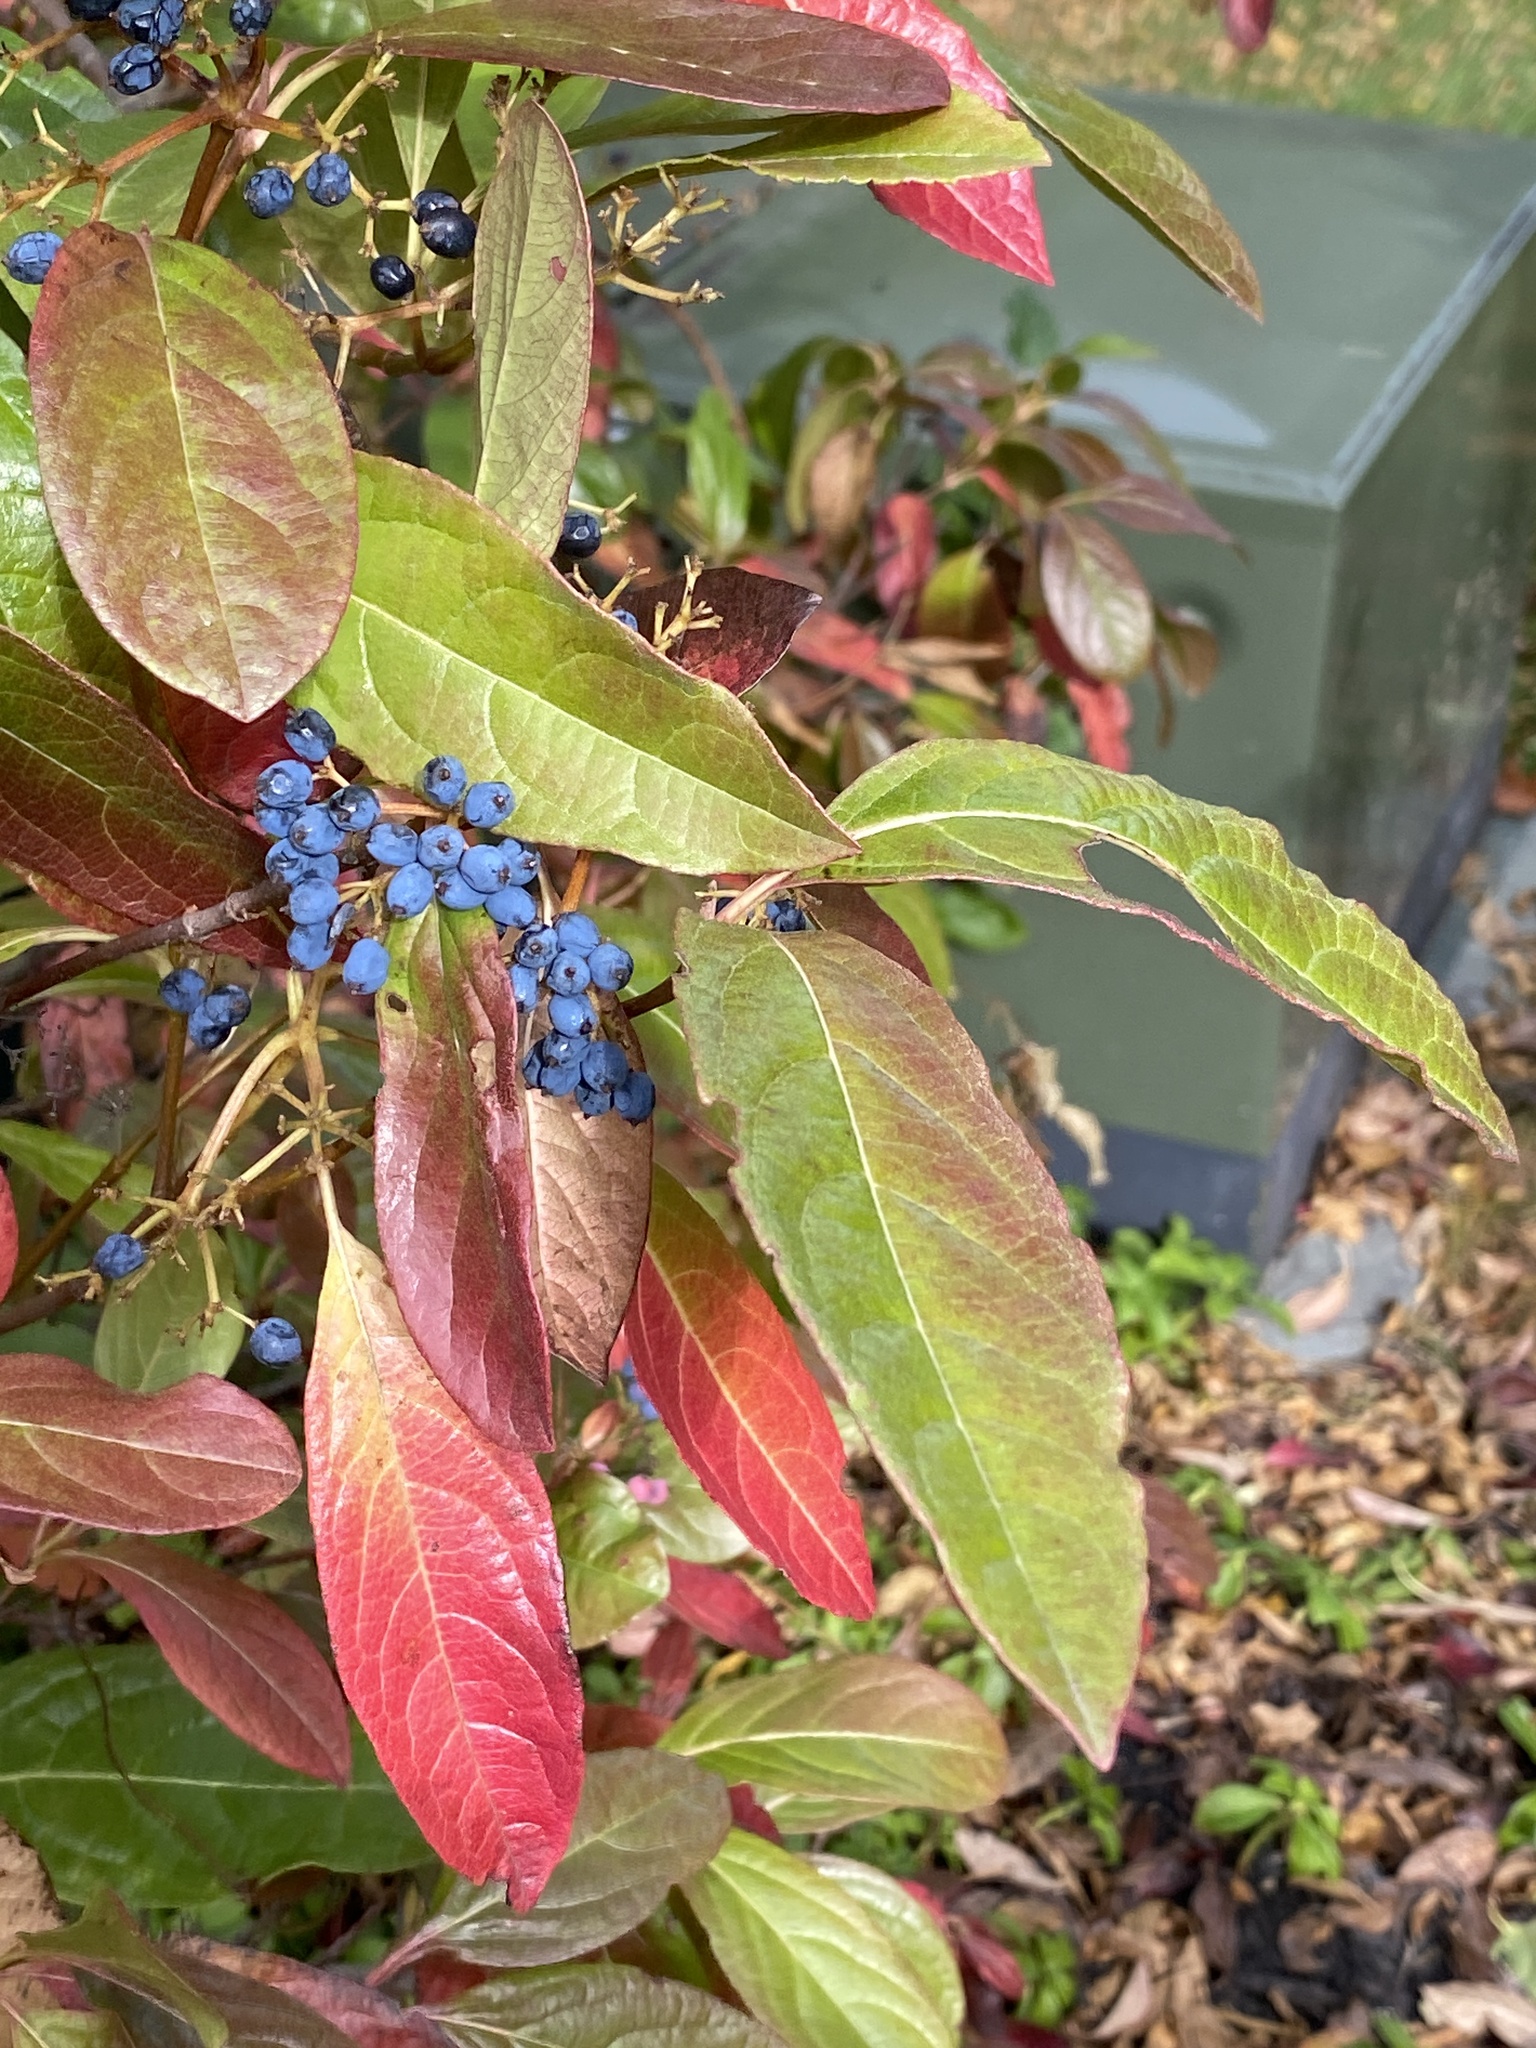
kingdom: Plantae
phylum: Tracheophyta
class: Magnoliopsida
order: Dipsacales
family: Viburnaceae
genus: Viburnum
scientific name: Viburnum cassinoides
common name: Swamp haw
